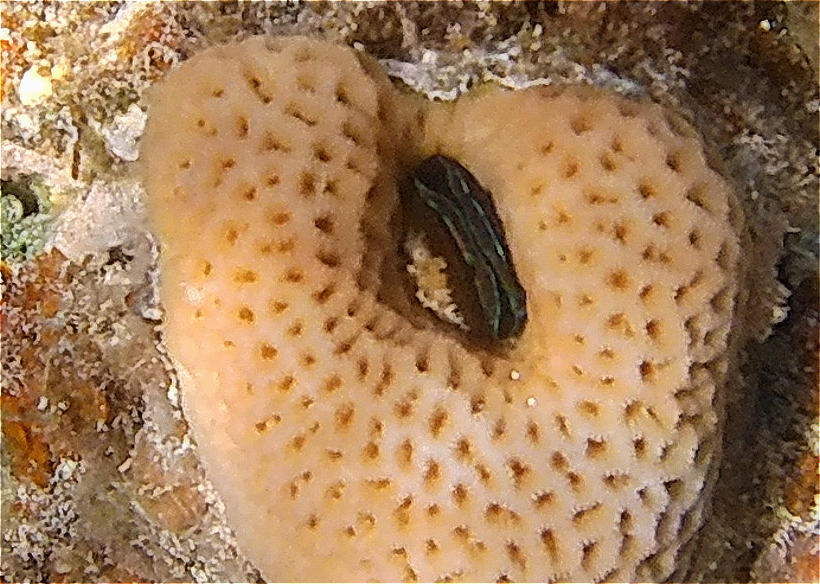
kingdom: Animalia
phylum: Mollusca
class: Bivalvia
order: Pectinida
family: Pectinidae
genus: Pedum
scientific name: Pedum spondyloideum
